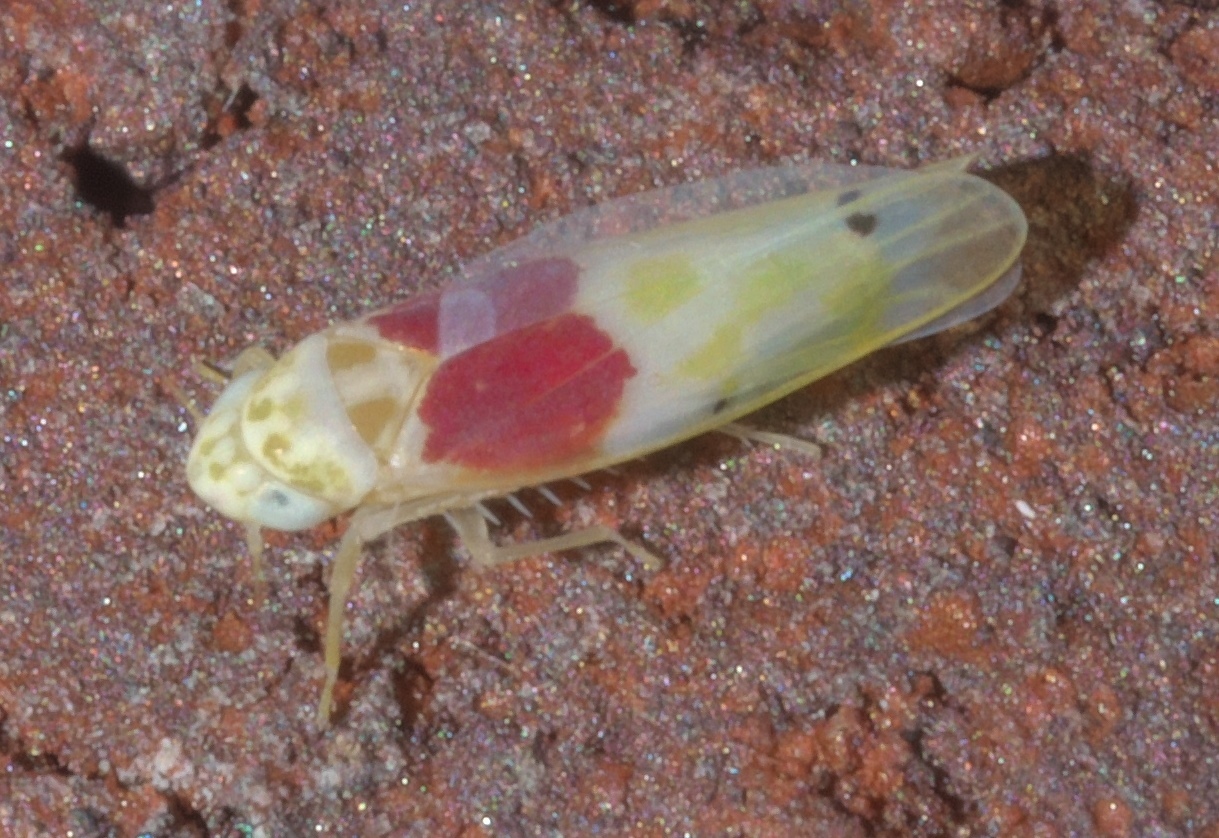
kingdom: Animalia
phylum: Arthropoda
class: Insecta
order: Hemiptera
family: Cicadellidae
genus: Eratoneura
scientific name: Eratoneura osborni
